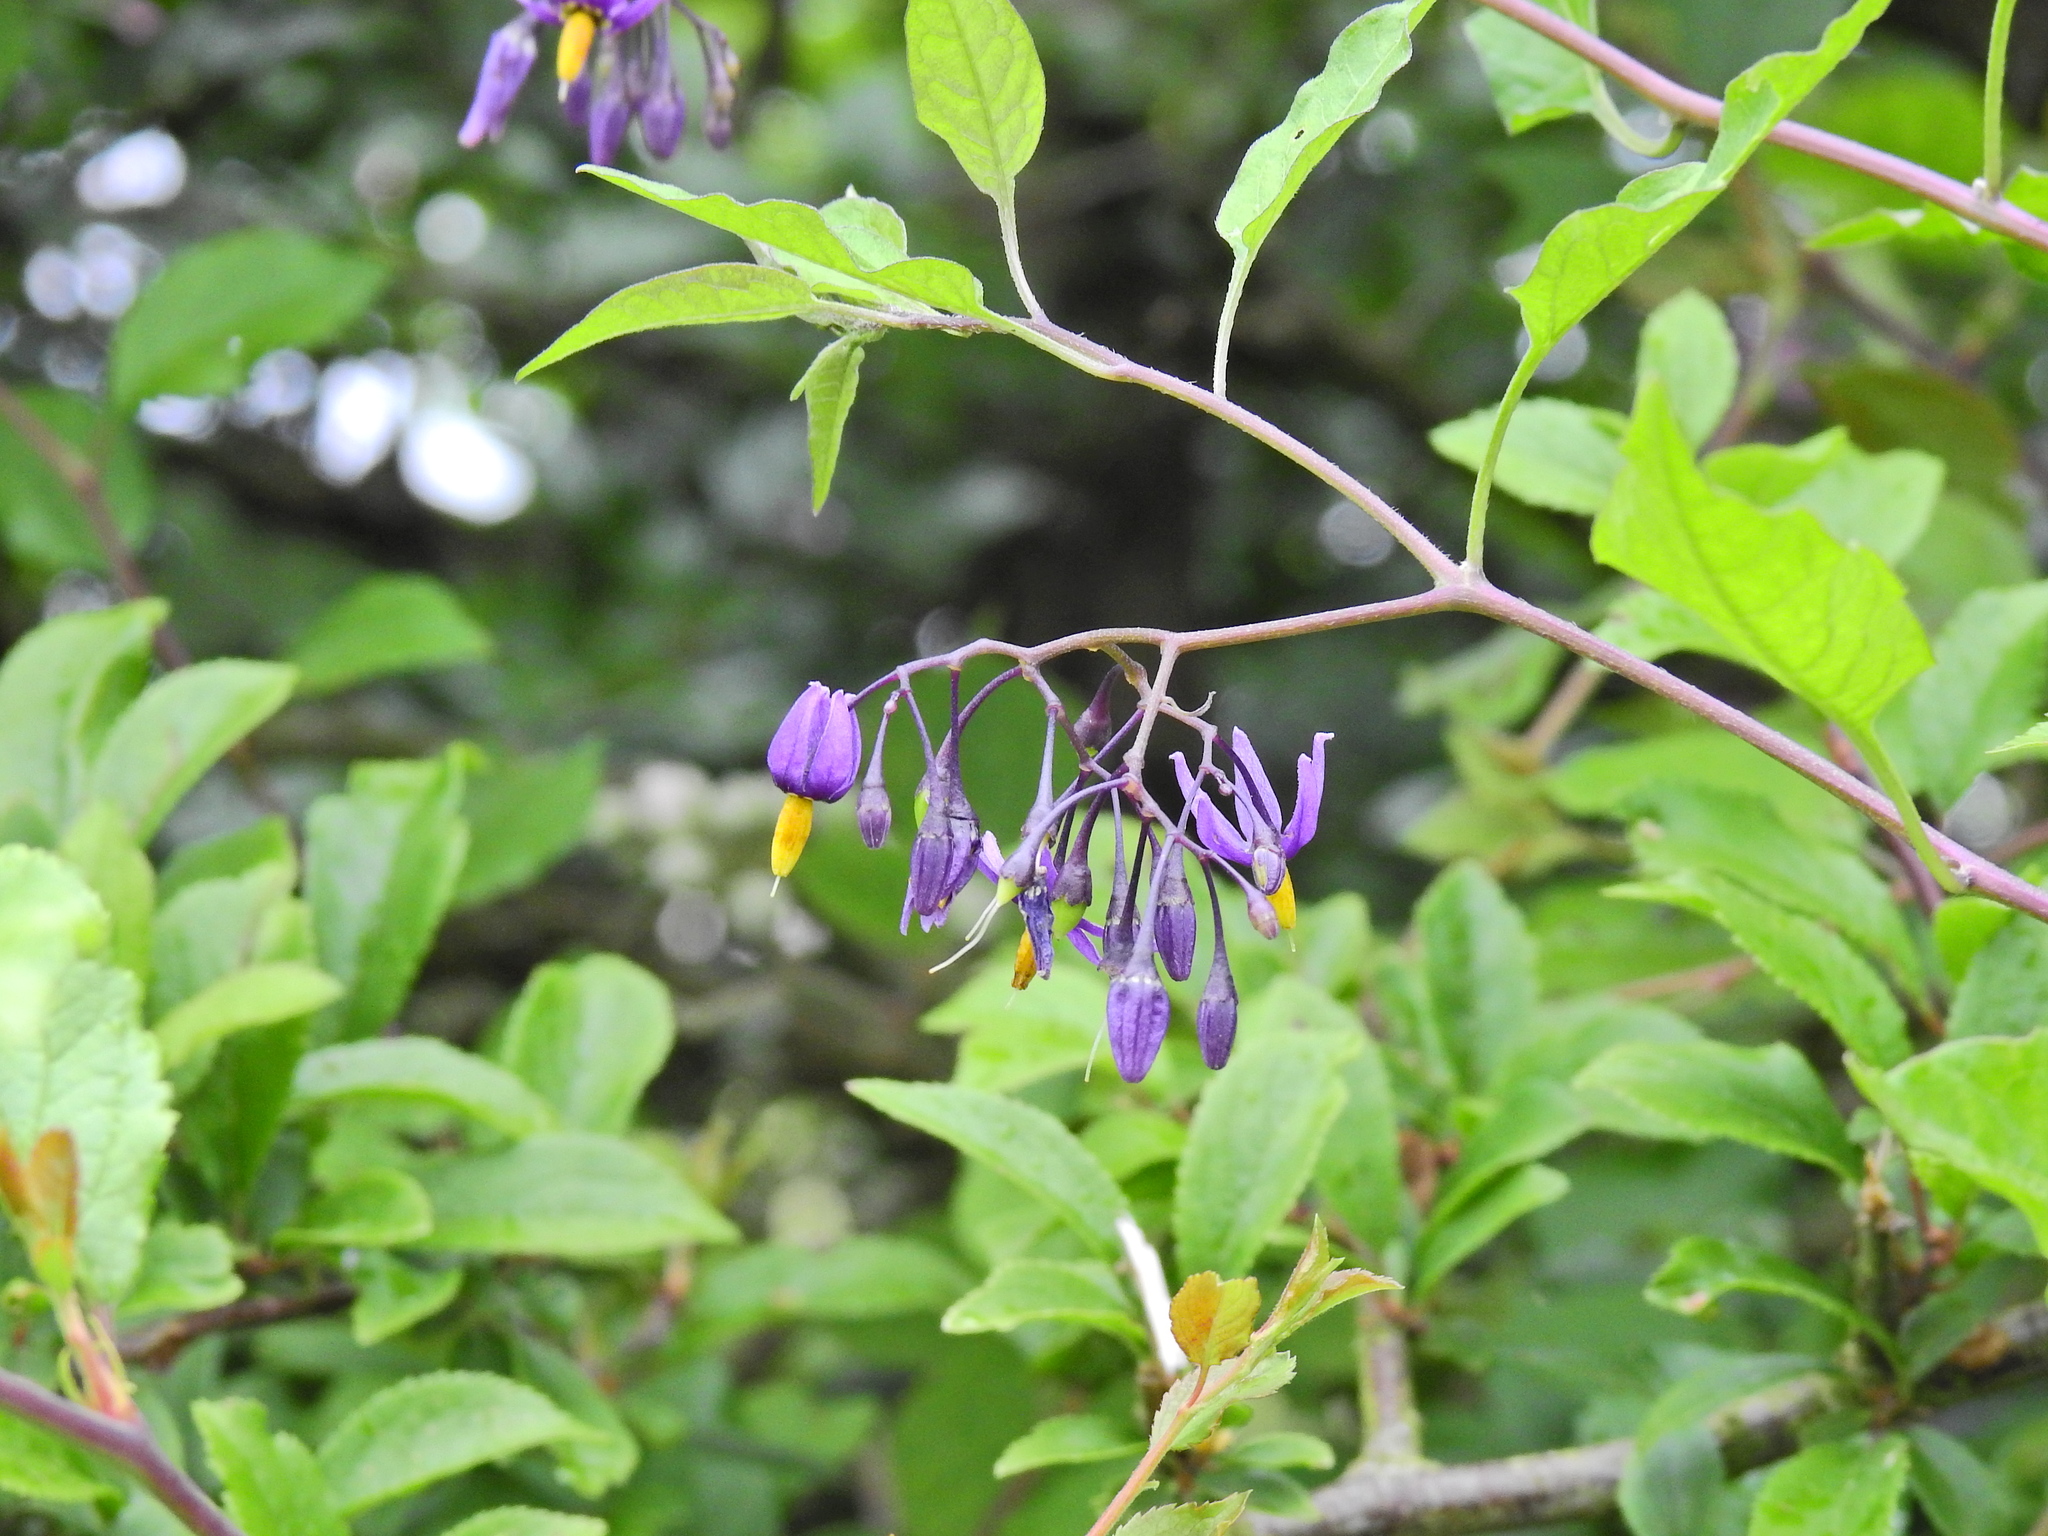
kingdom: Plantae
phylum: Tracheophyta
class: Magnoliopsida
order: Solanales
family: Solanaceae
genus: Solanum
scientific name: Solanum dulcamara
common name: Climbing nightshade
